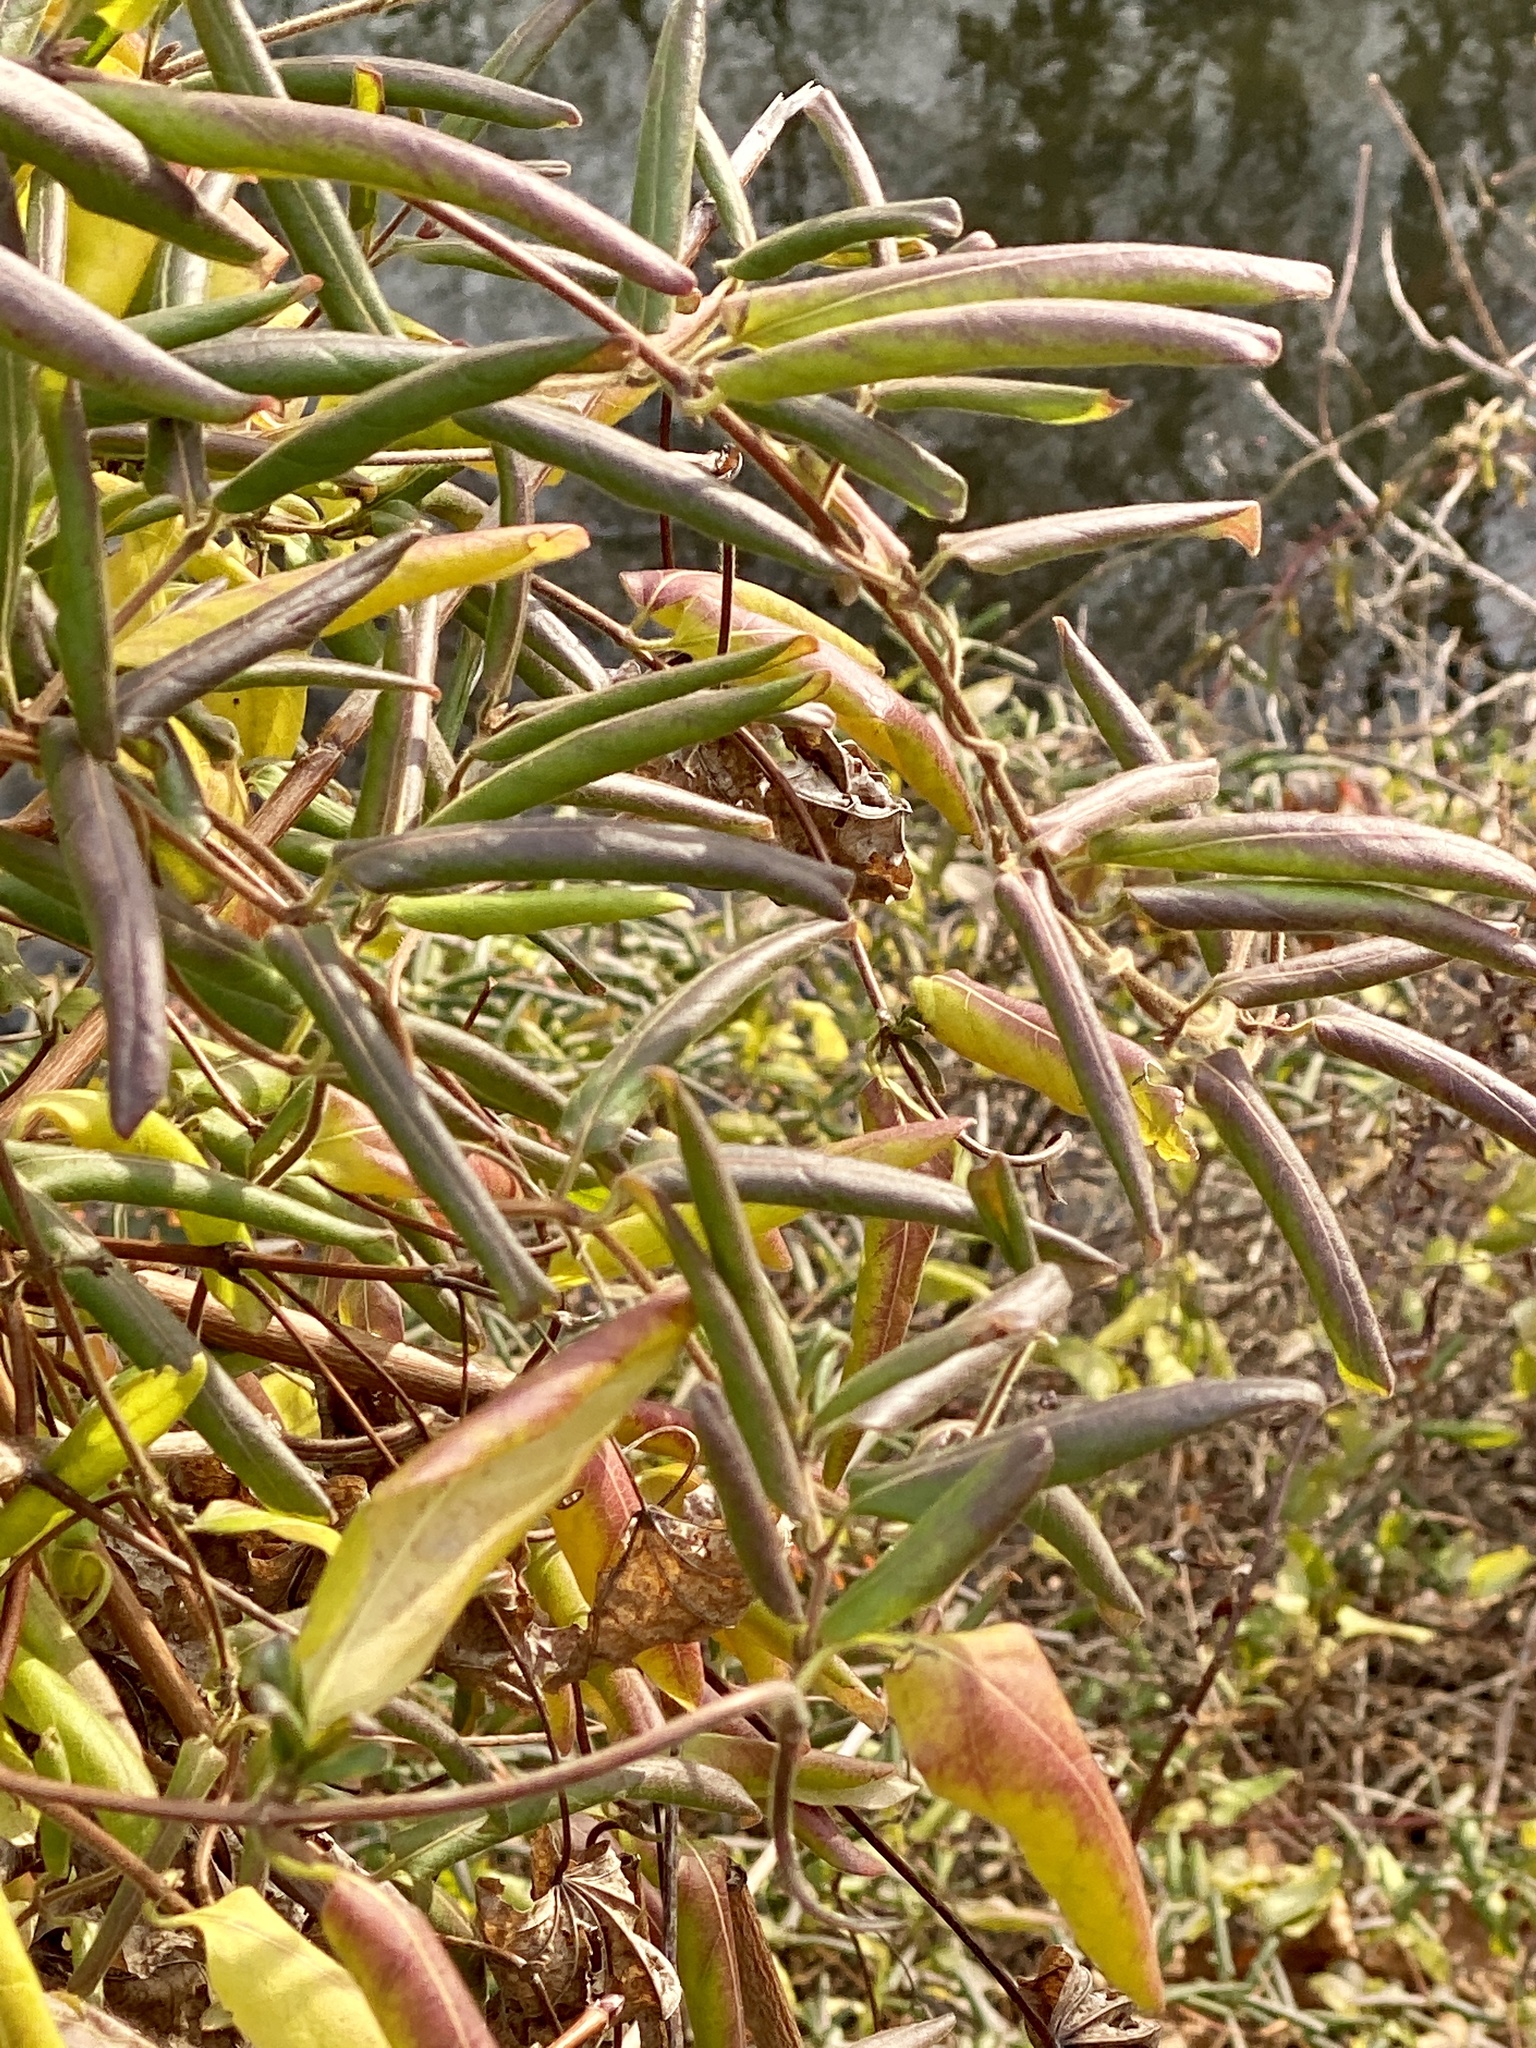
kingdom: Plantae
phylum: Tracheophyta
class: Magnoliopsida
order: Dipsacales
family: Caprifoliaceae
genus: Lonicera
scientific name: Lonicera japonica
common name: Japanese honeysuckle
